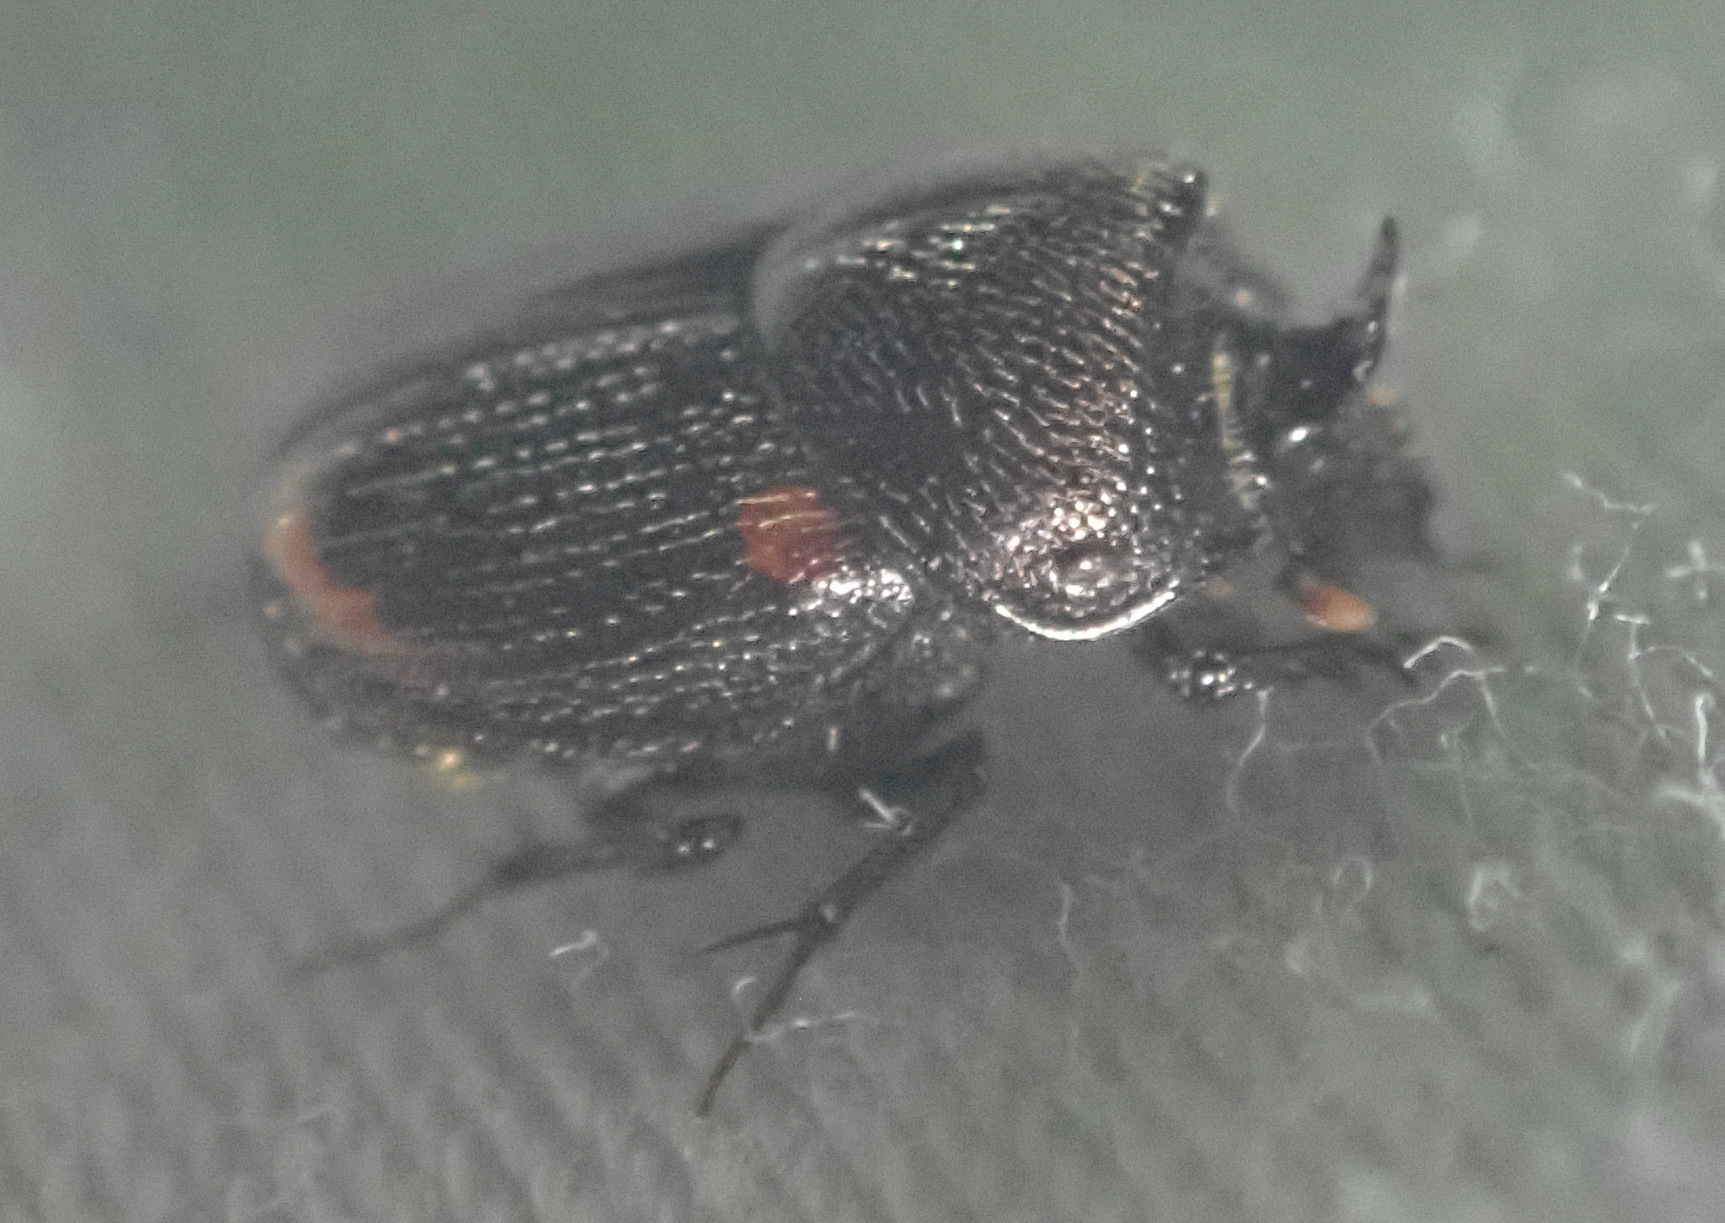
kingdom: Animalia
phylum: Arthropoda
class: Insecta
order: Coleoptera
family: Scarabaeidae
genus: Onthophagus
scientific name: Onthophagus quadrimaculatus
